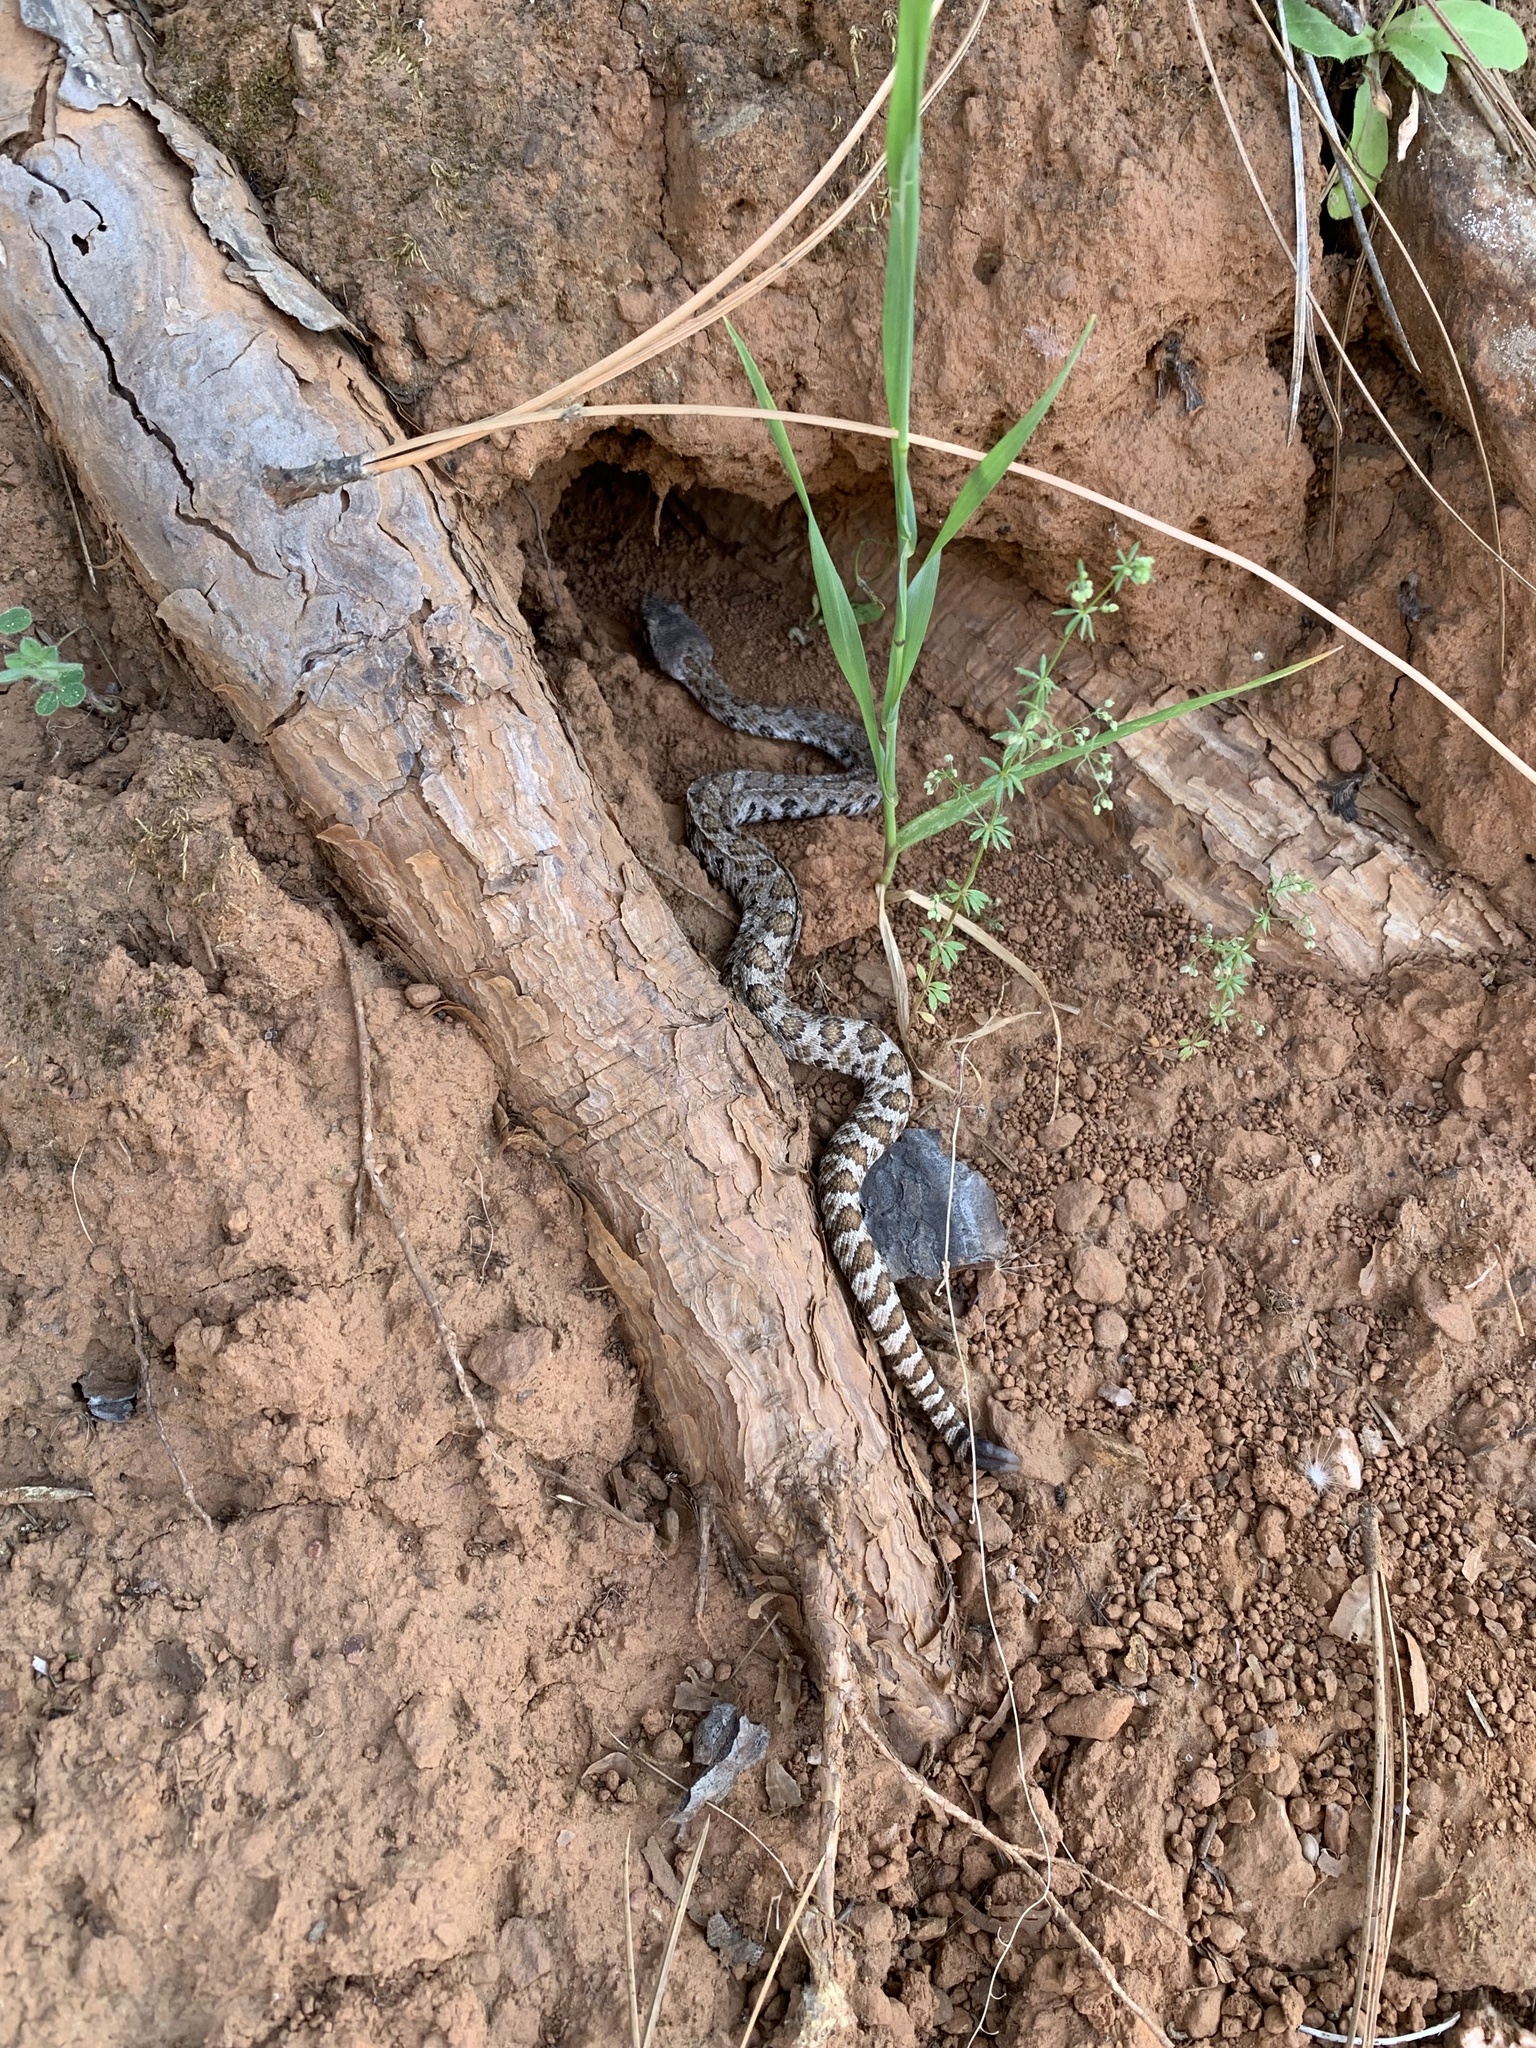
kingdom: Animalia
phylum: Chordata
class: Squamata
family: Viperidae
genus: Crotalus
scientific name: Crotalus oreganus
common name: Abyssus
